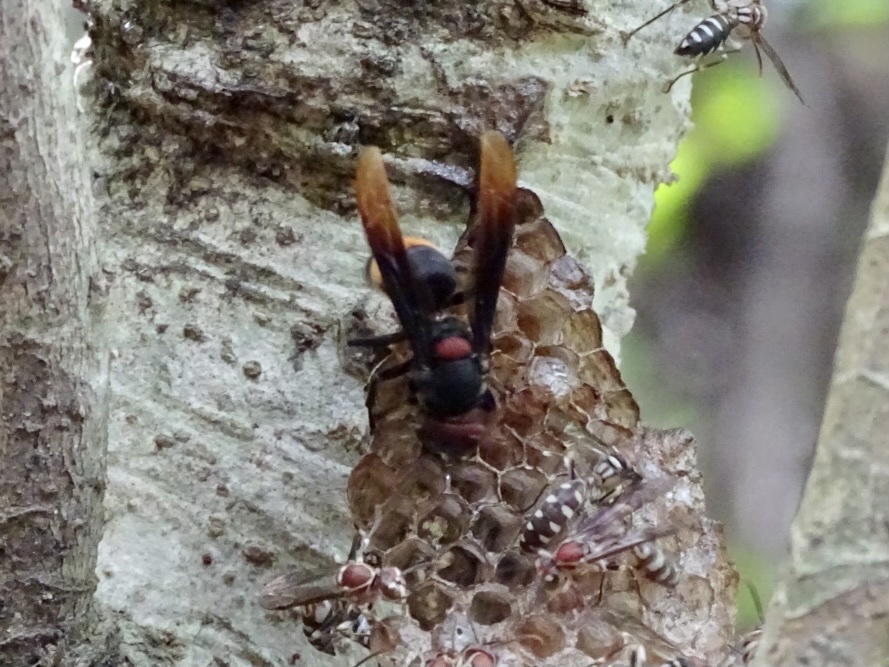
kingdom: Animalia
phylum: Arthropoda
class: Insecta
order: Hymenoptera
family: Vespidae
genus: Vespa
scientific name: Vespa tropica
